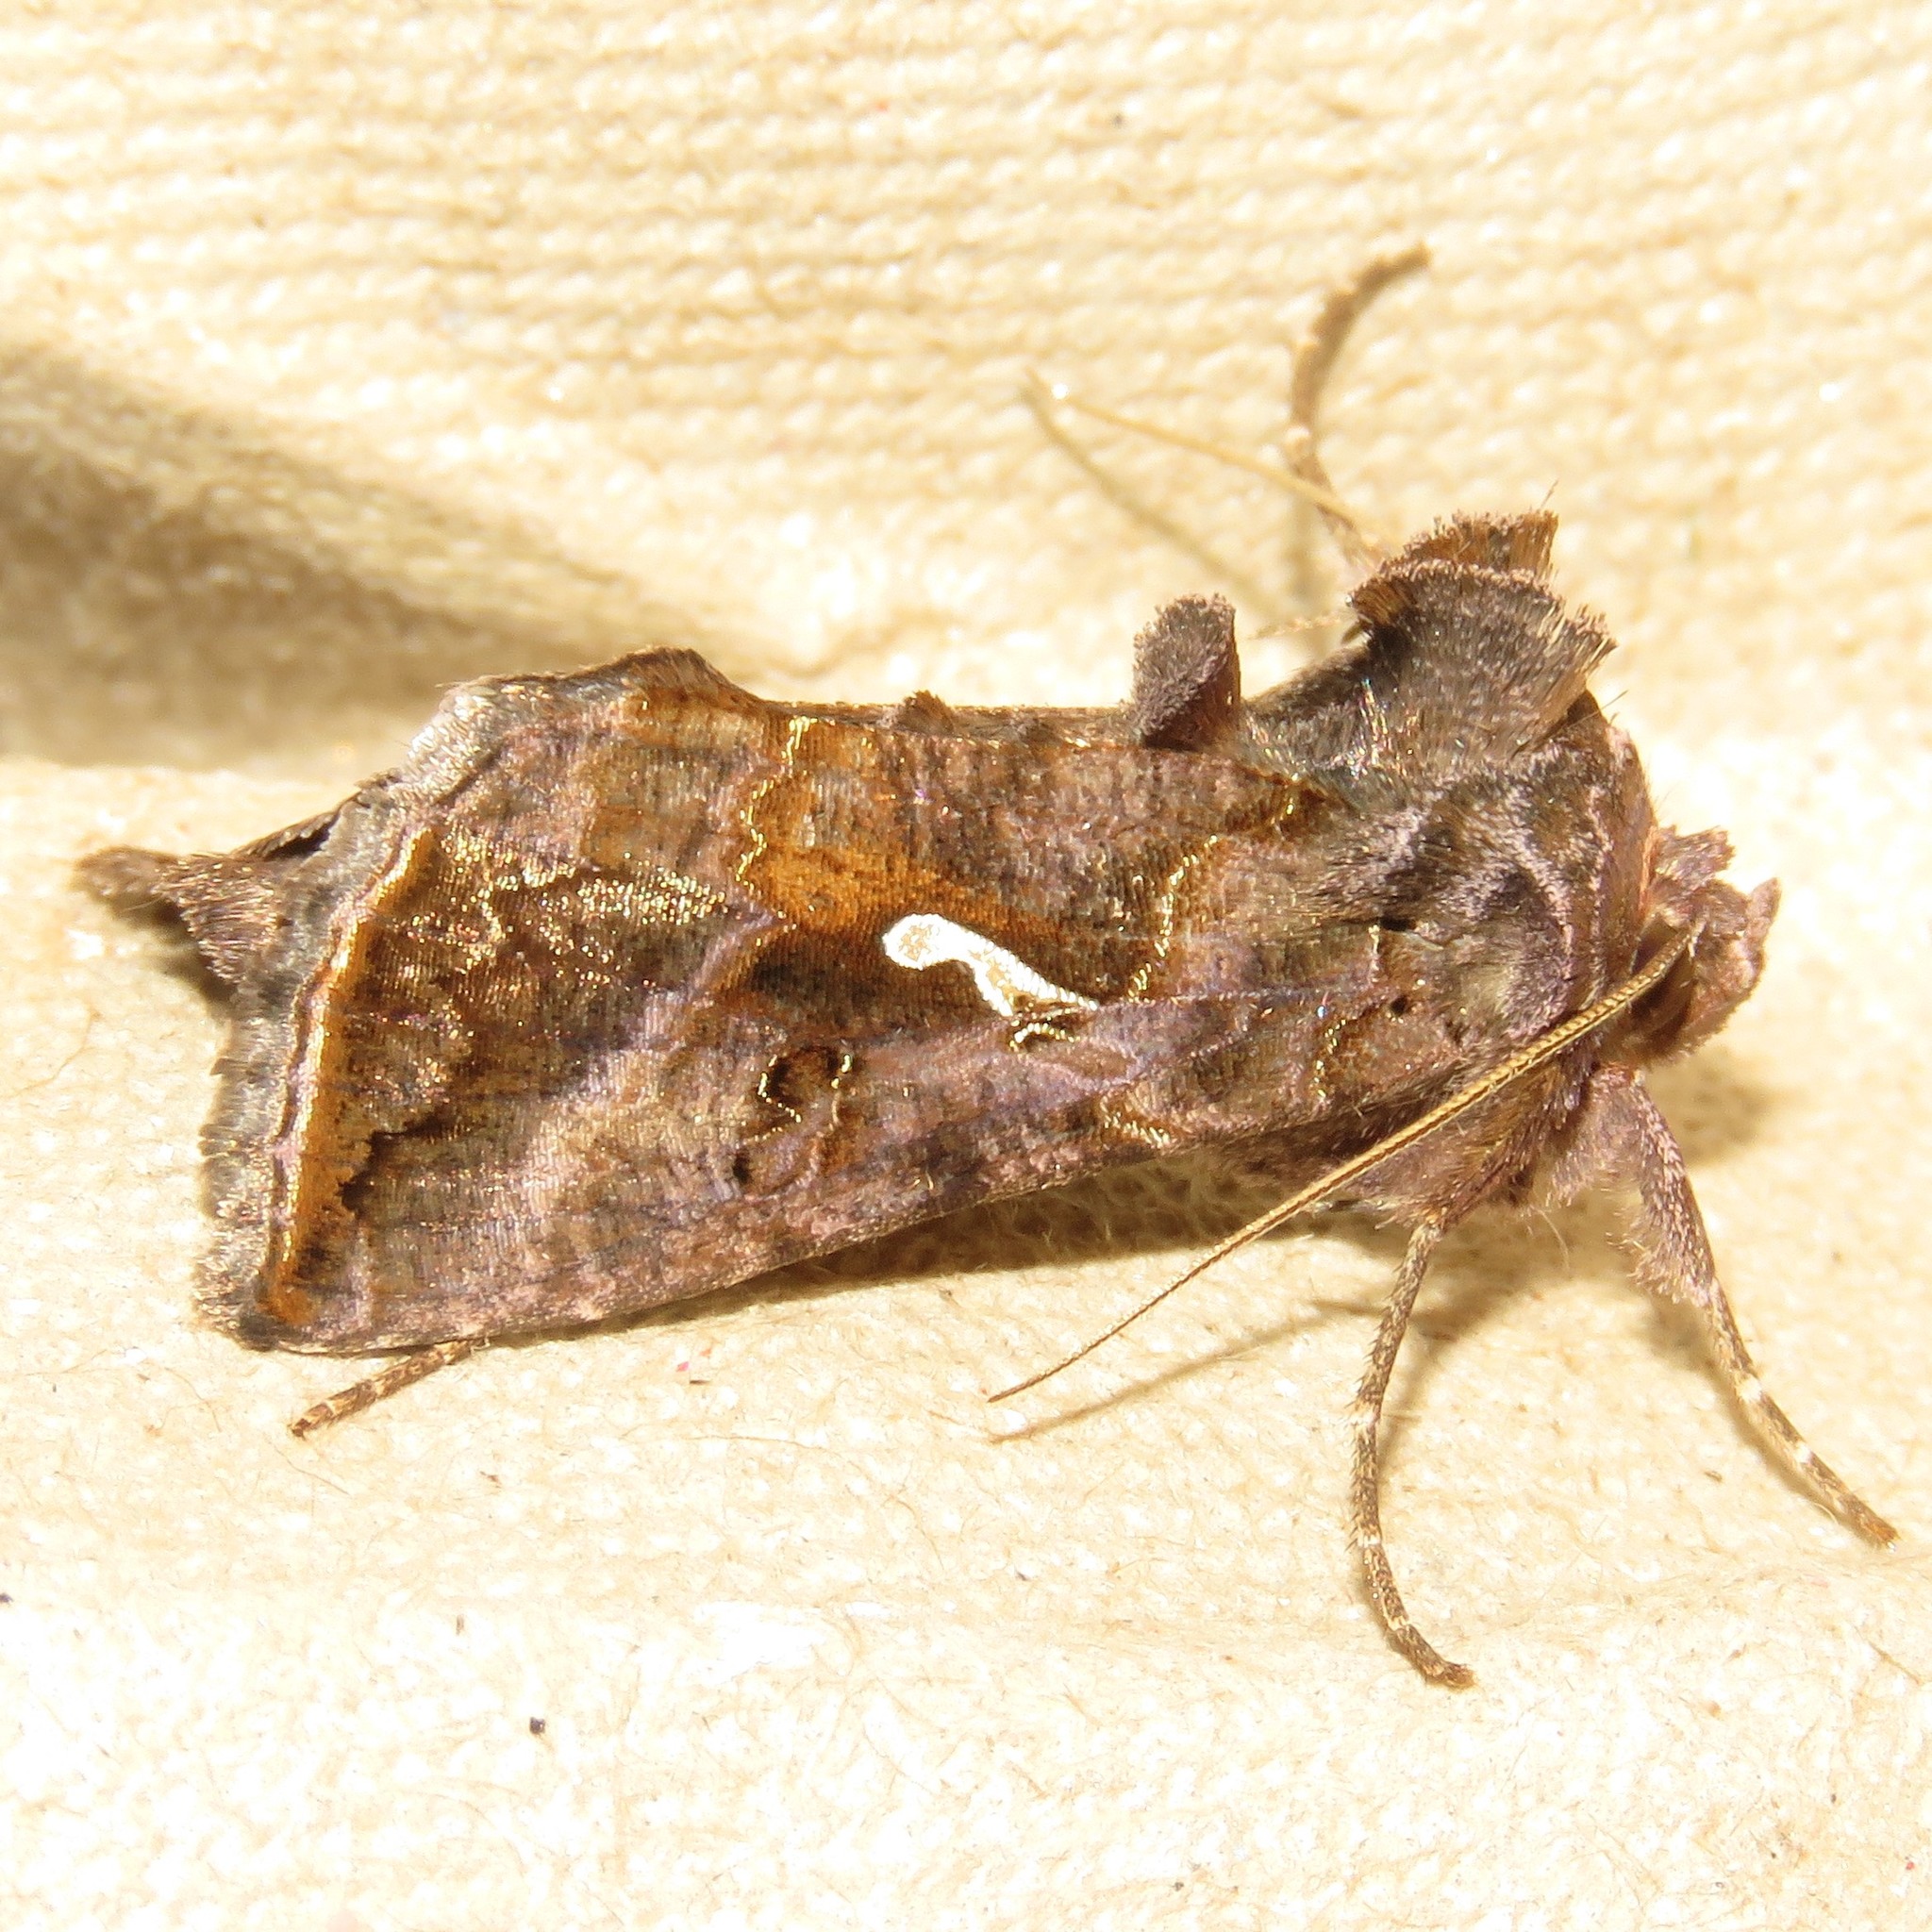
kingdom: Animalia
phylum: Arthropoda
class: Insecta
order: Lepidoptera
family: Noctuidae
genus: Autographa
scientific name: Autographa precationis
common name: Common looper moth
